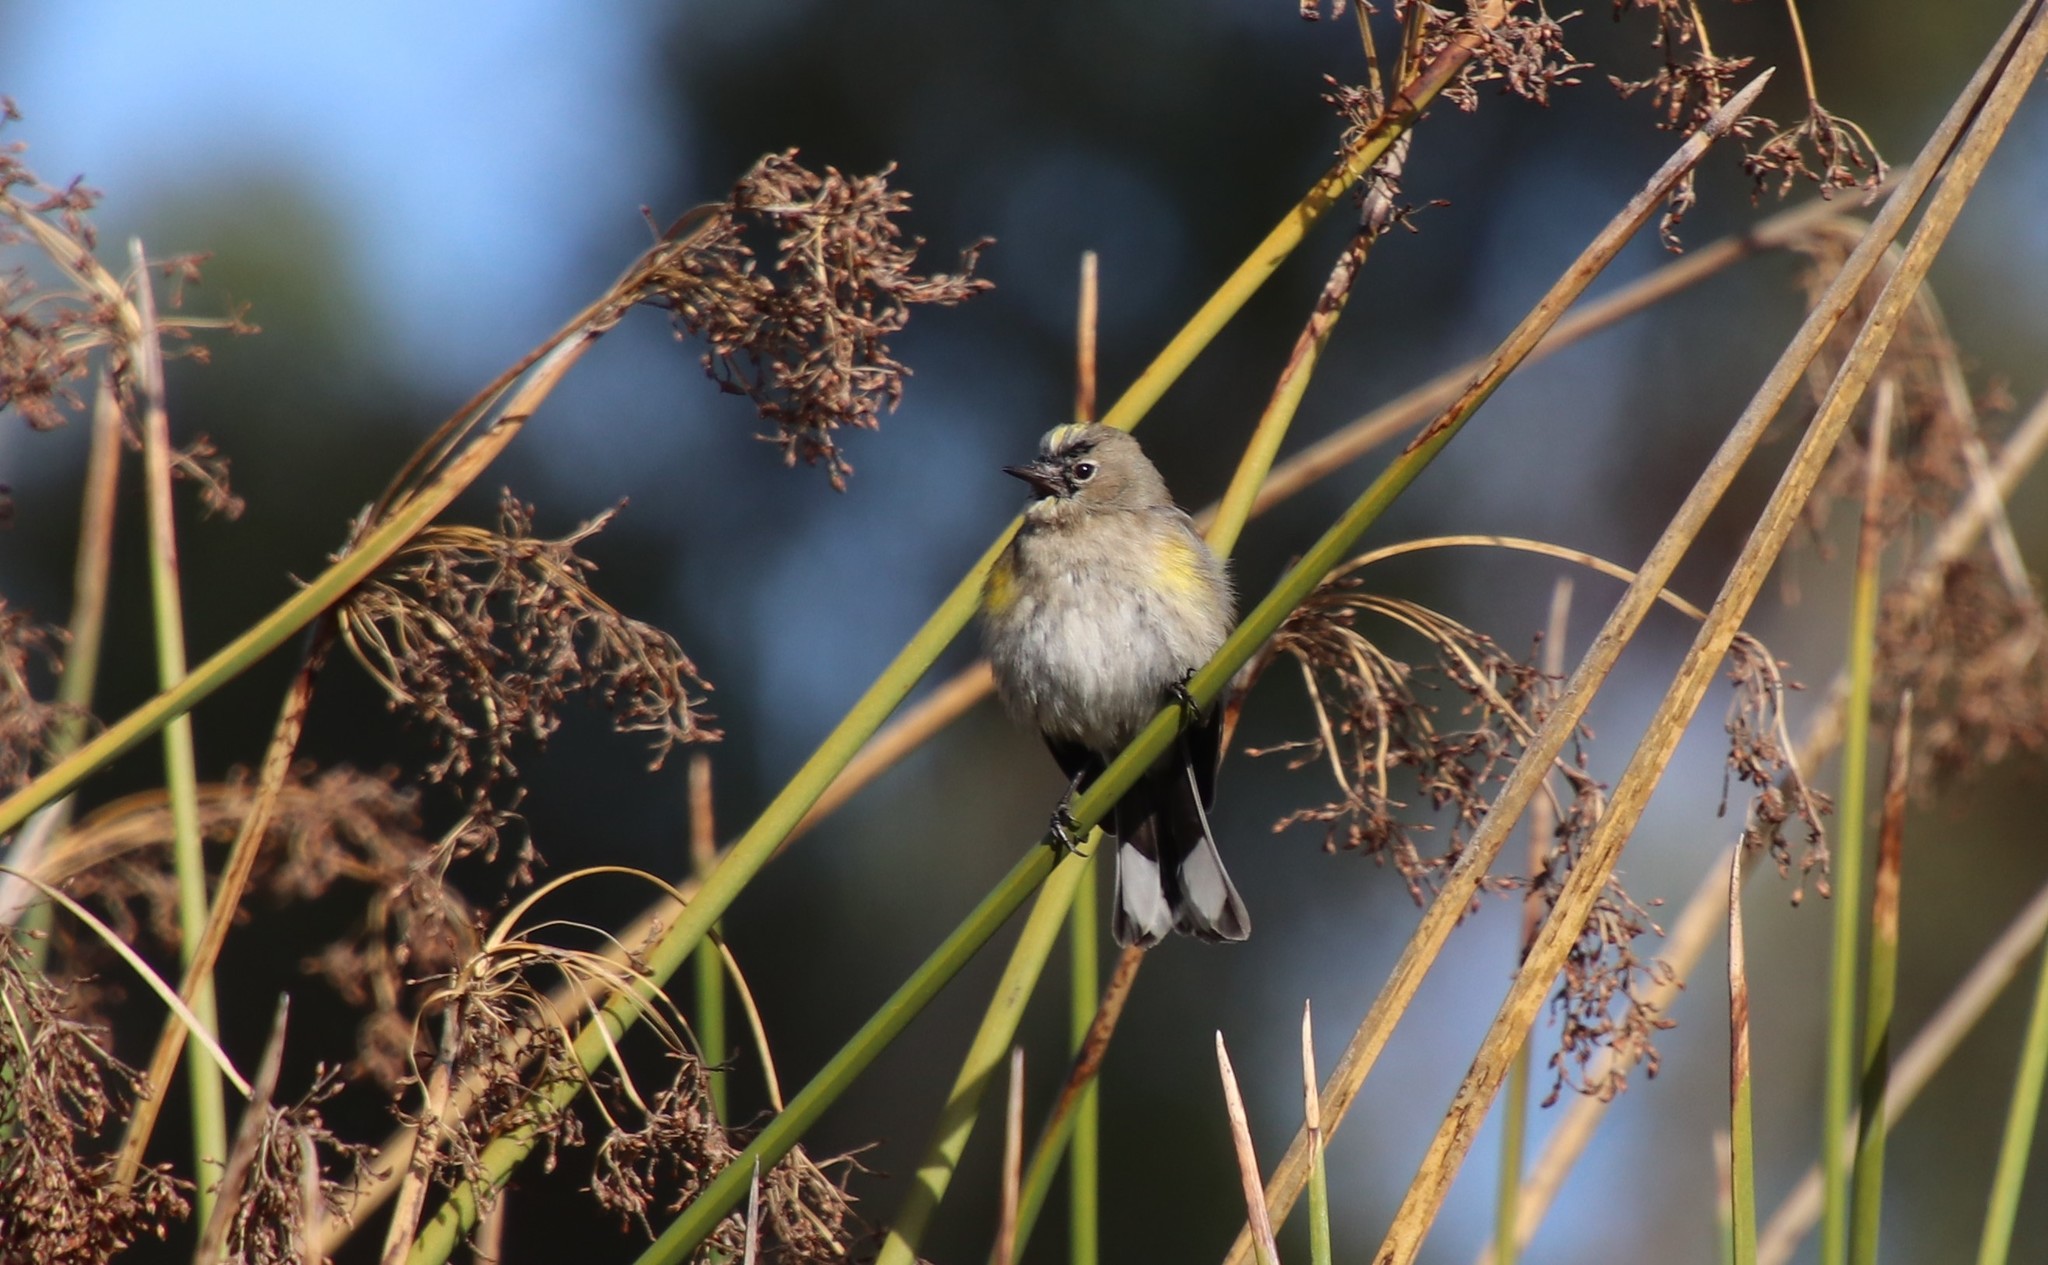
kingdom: Animalia
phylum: Chordata
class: Aves
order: Passeriformes
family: Parulidae
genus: Setophaga
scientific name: Setophaga auduboni
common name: Audubon's warbler
